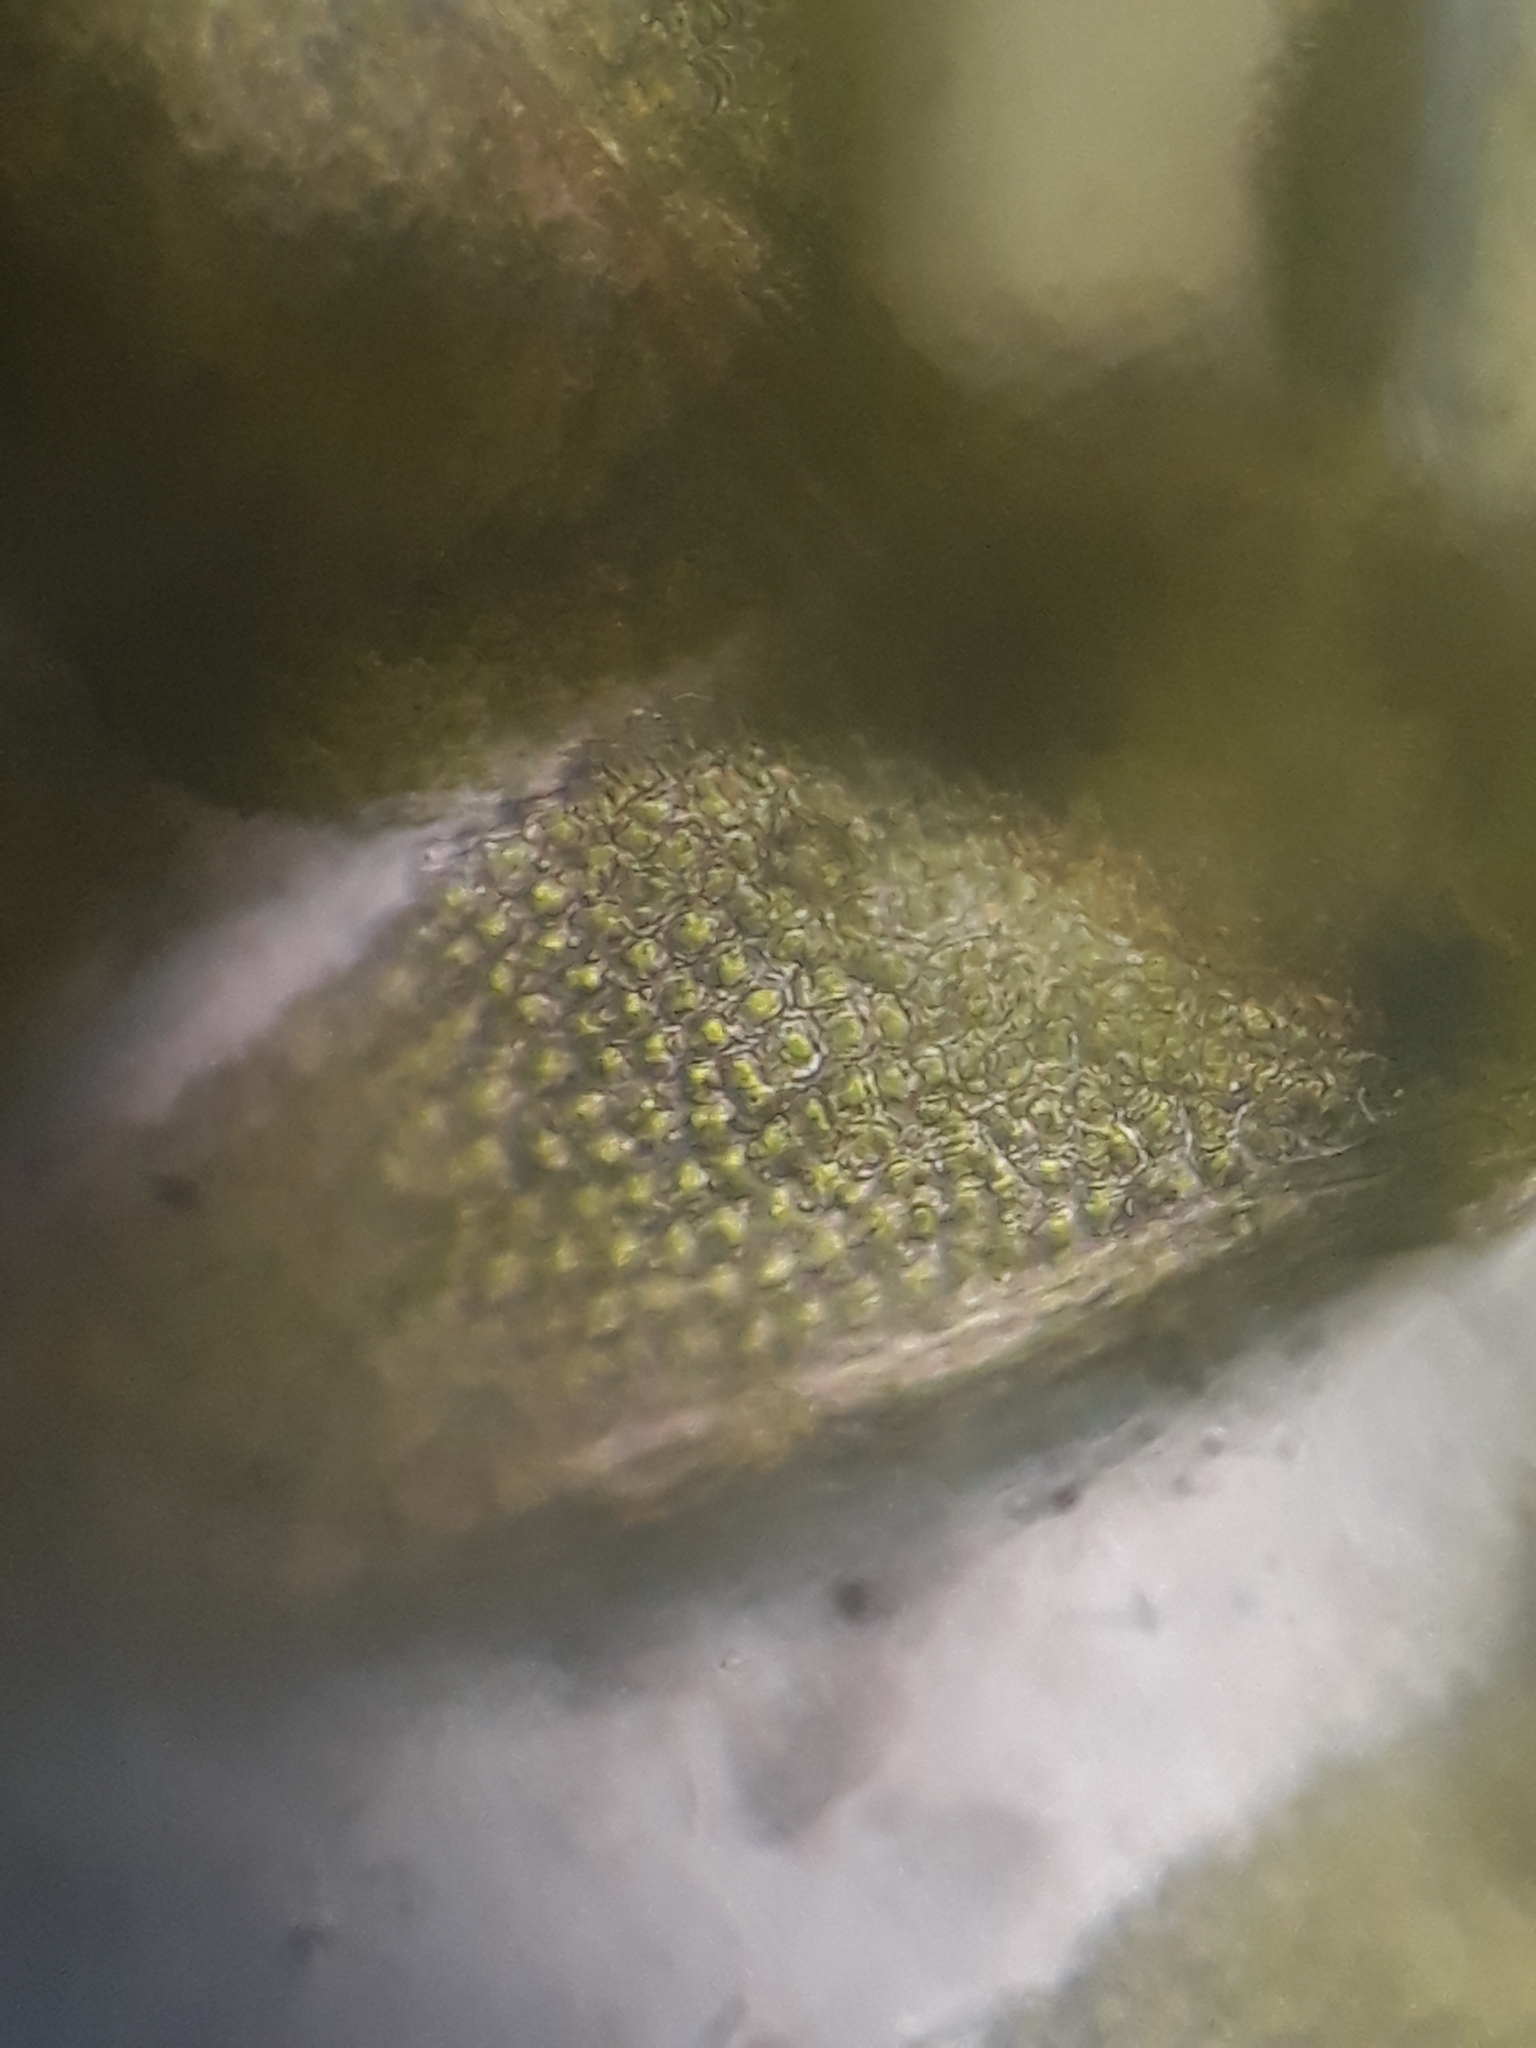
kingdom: Plantae
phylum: Bryophyta
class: Bryopsida
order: Hypnales
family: Thuidiaceae
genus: Thuidiopsis
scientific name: Thuidiopsis sparsa
